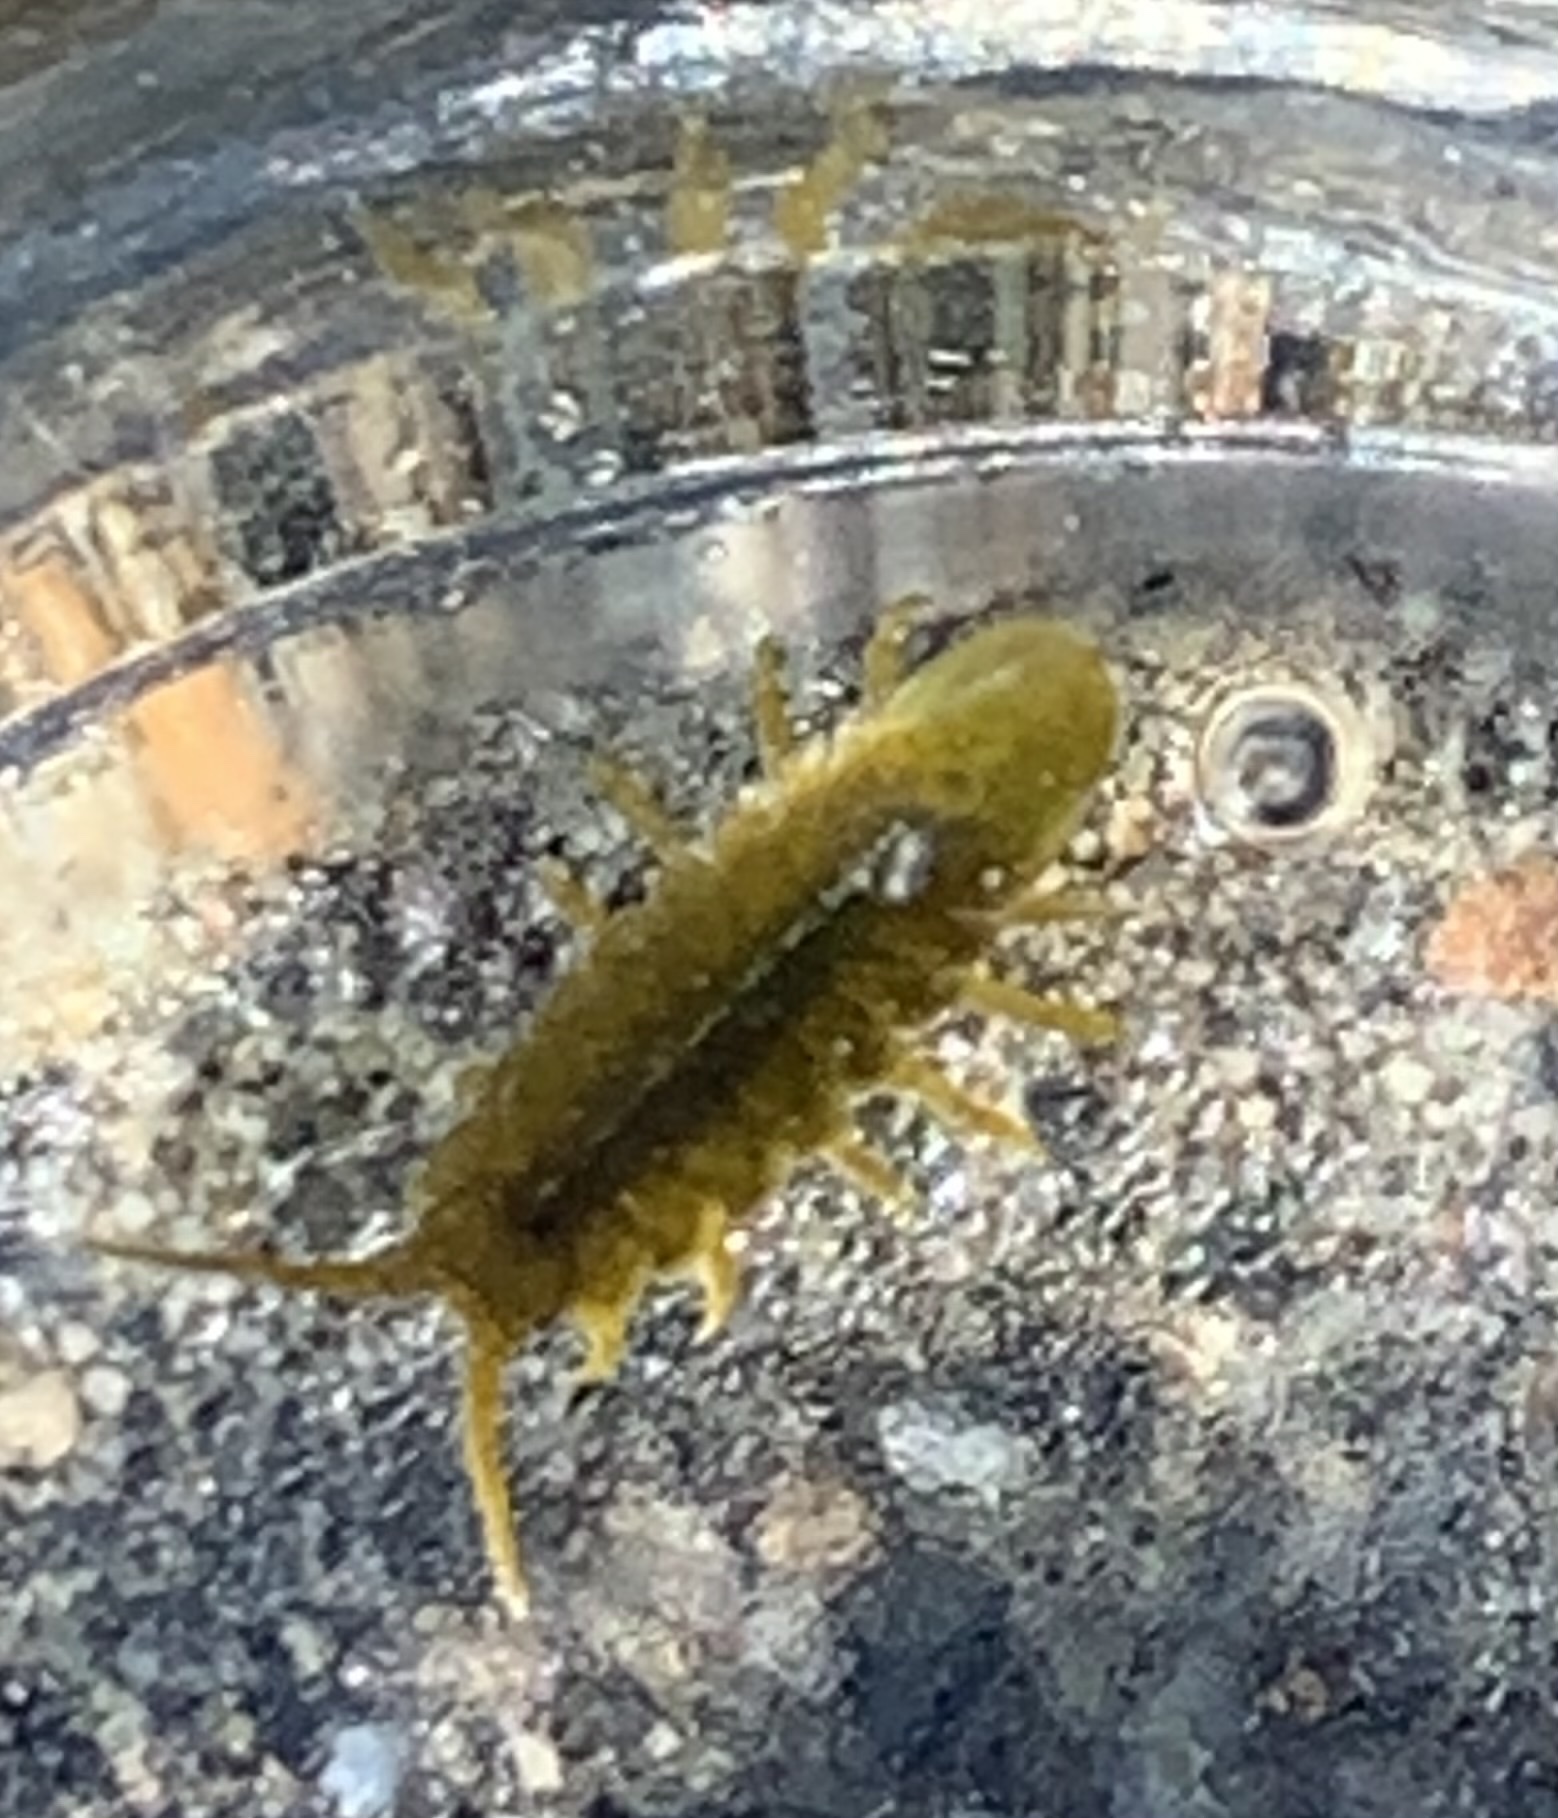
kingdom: Animalia
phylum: Arthropoda
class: Malacostraca
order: Isopoda
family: Idoteidae
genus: Pentidotea
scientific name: Pentidotea wosnesenskii
